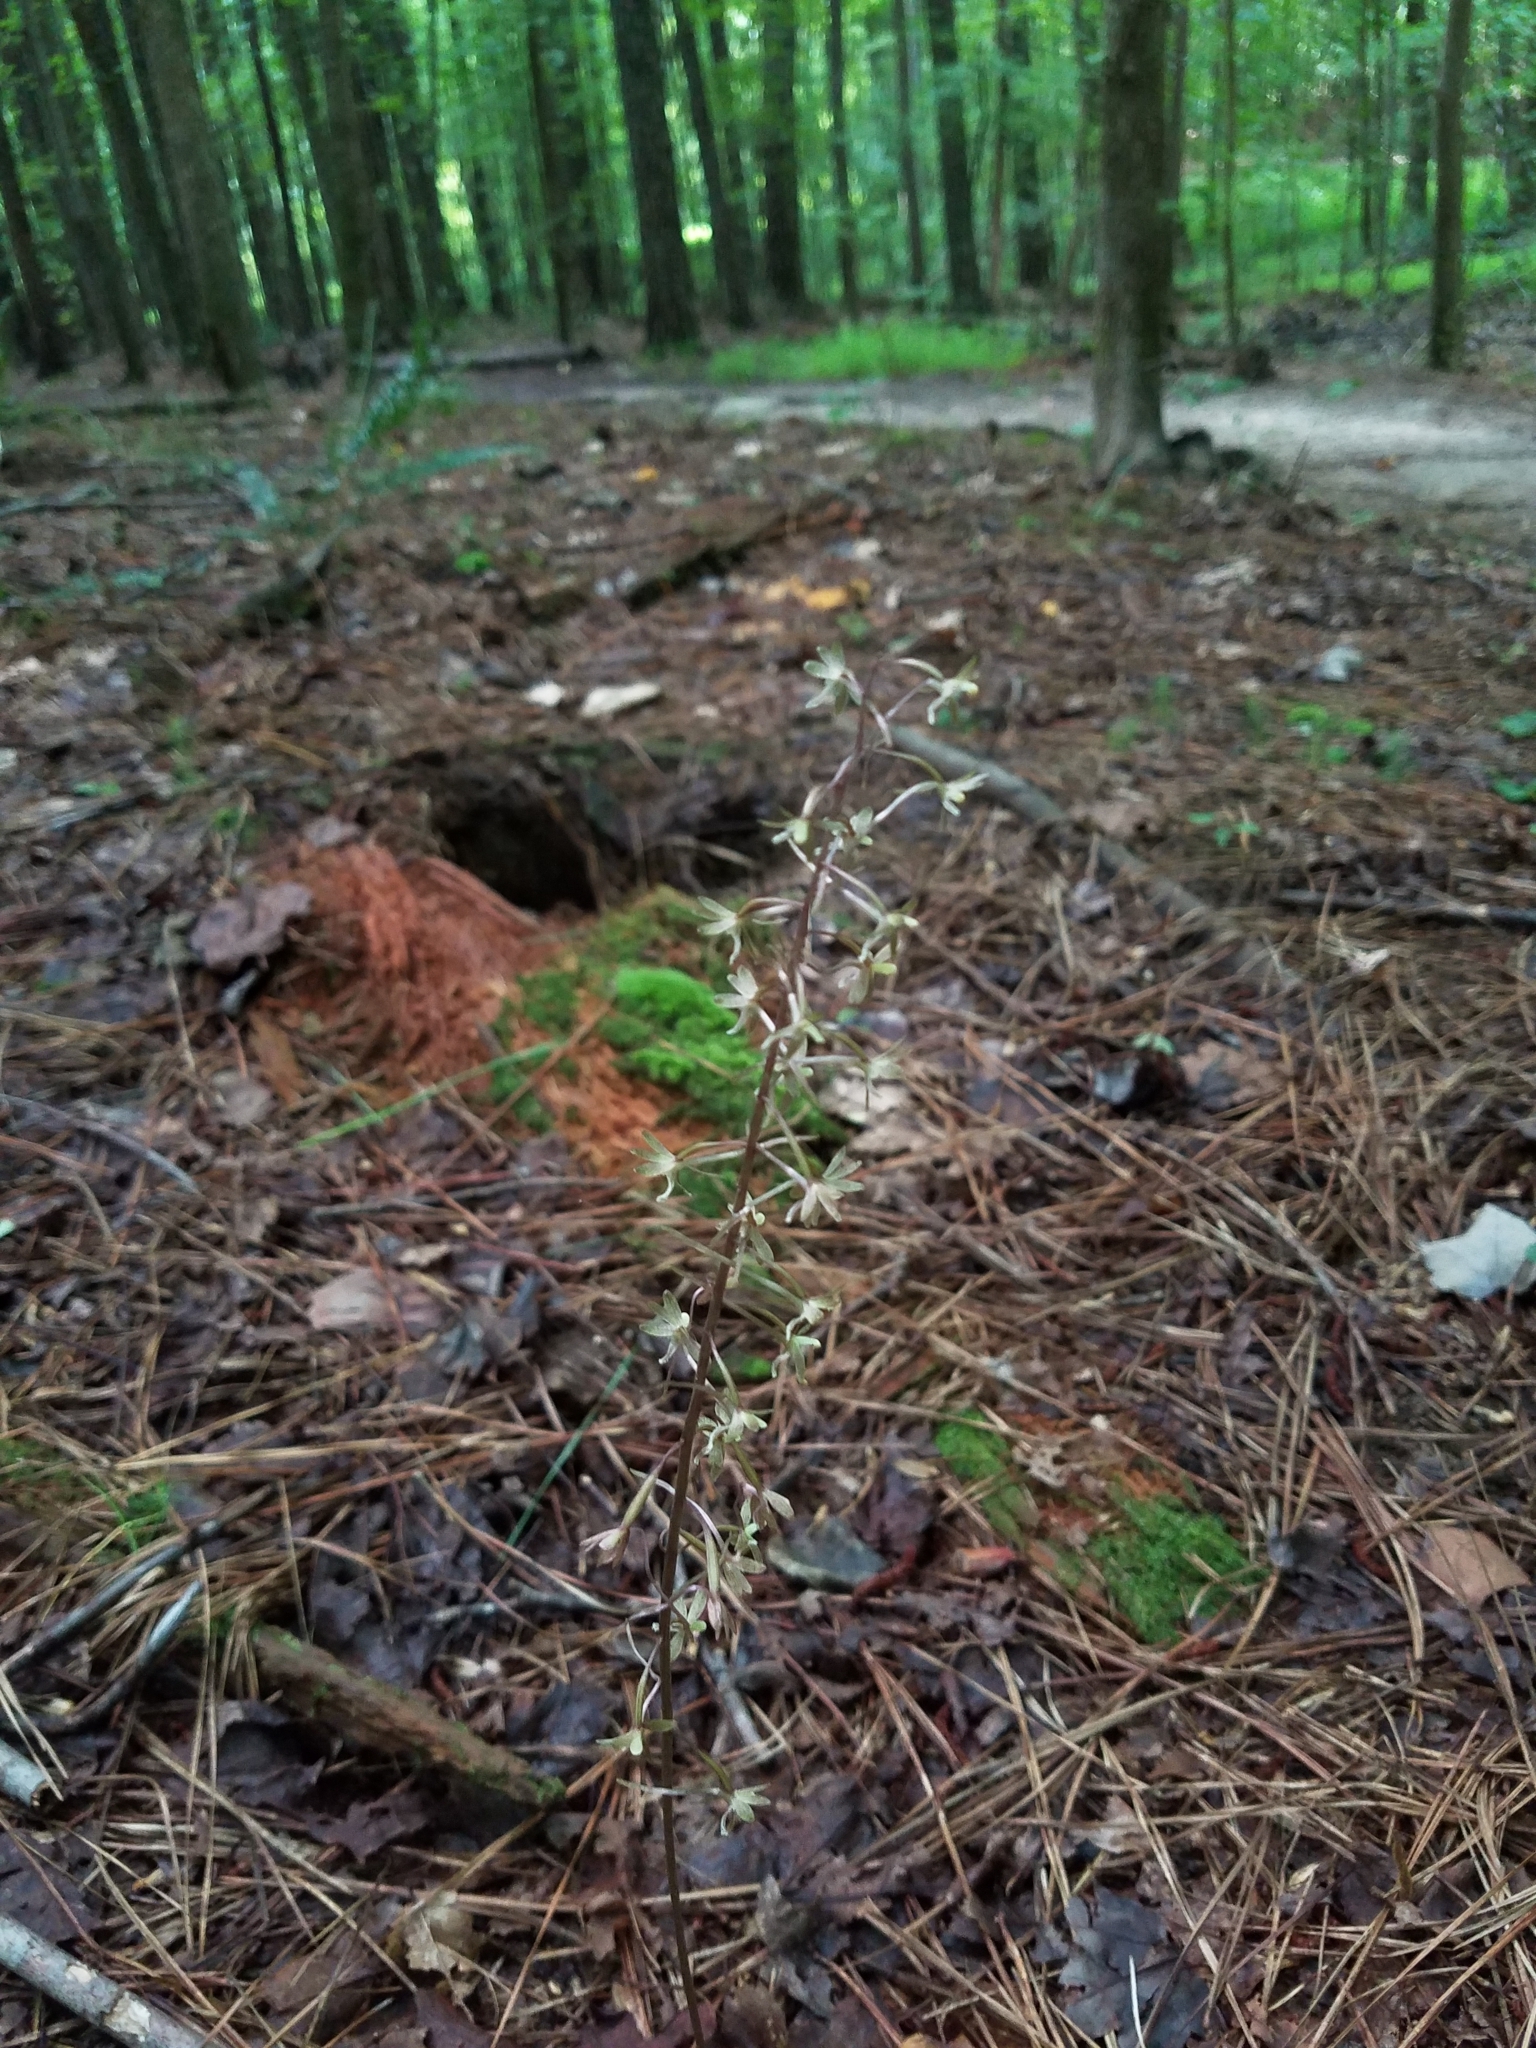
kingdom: Plantae
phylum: Tracheophyta
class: Liliopsida
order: Asparagales
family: Orchidaceae
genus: Tipularia
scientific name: Tipularia discolor
